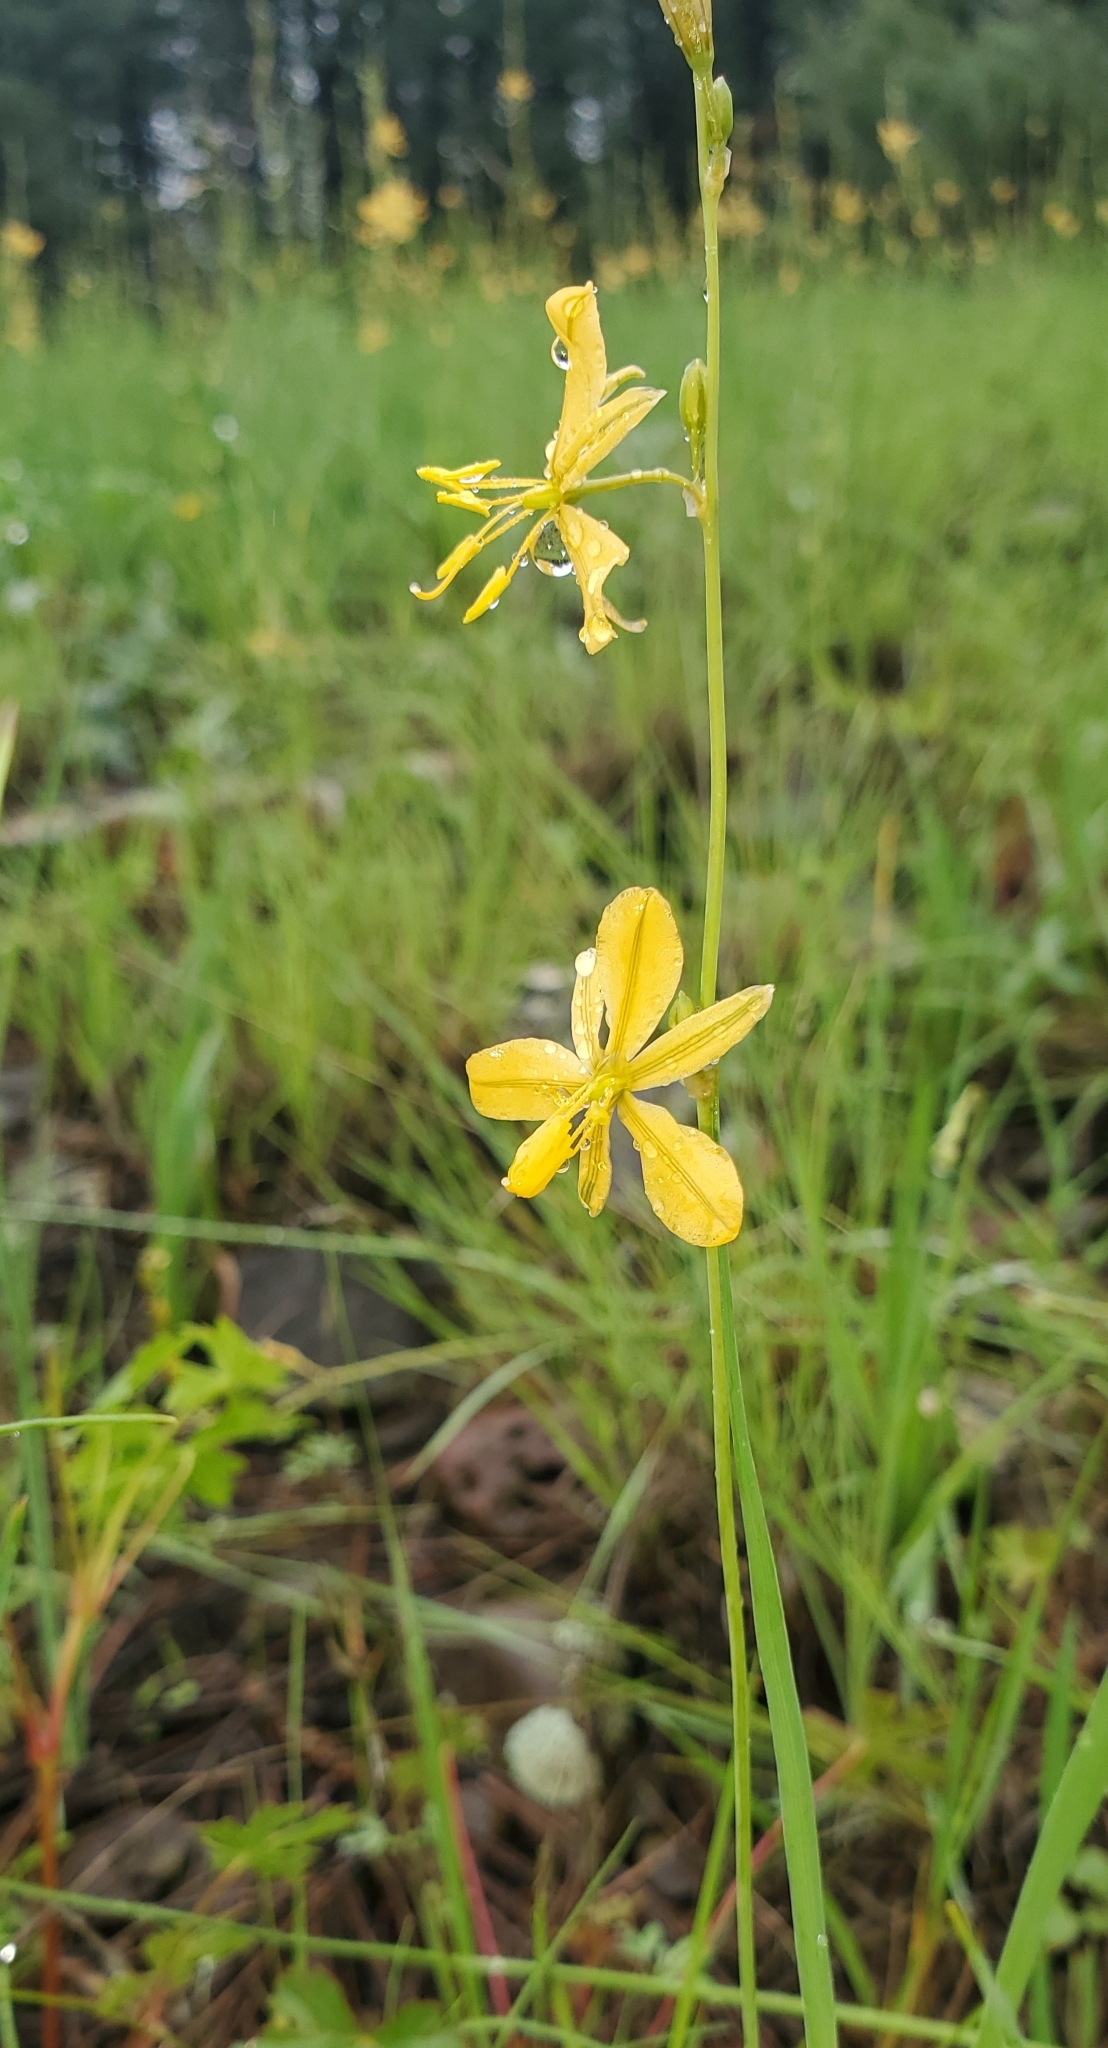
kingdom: Plantae
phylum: Tracheophyta
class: Liliopsida
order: Asparagales
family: Asparagaceae
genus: Echeandia
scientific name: Echeandia flavescens
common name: Amberlily
